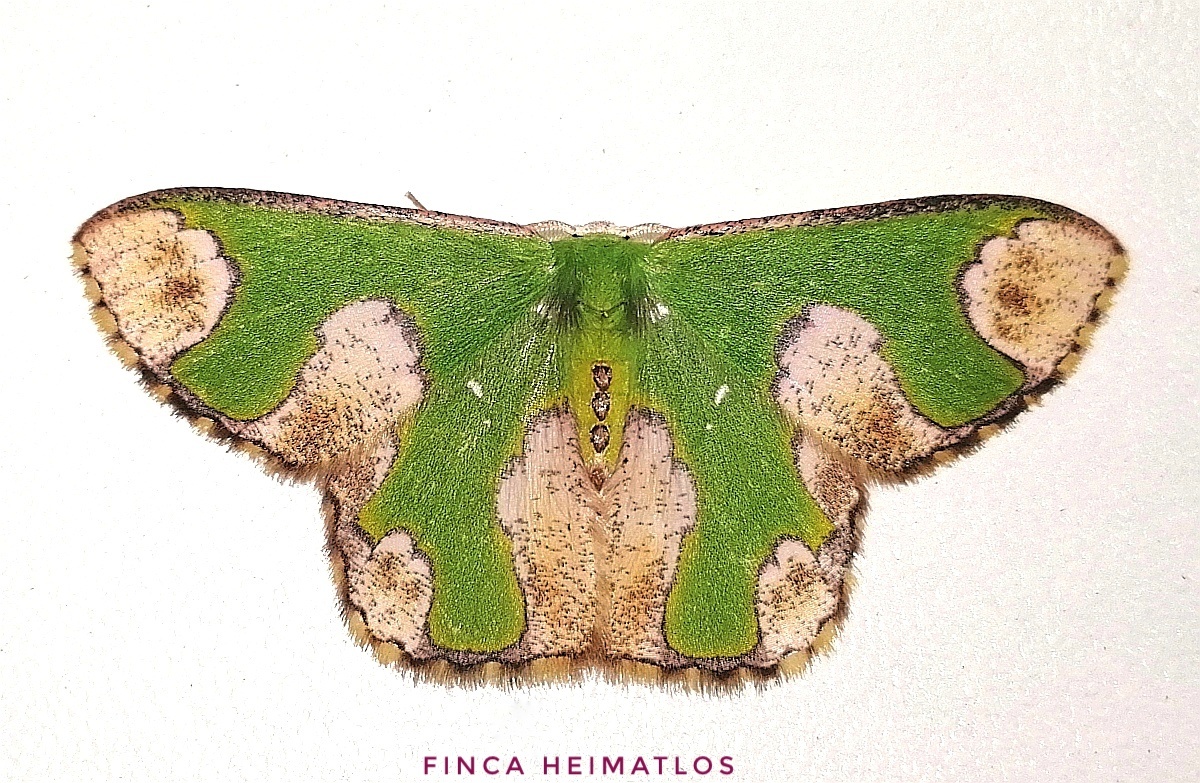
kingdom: Animalia
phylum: Arthropoda
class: Insecta
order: Lepidoptera
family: Geometridae
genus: Oospila
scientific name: Oospila ruptimacula
